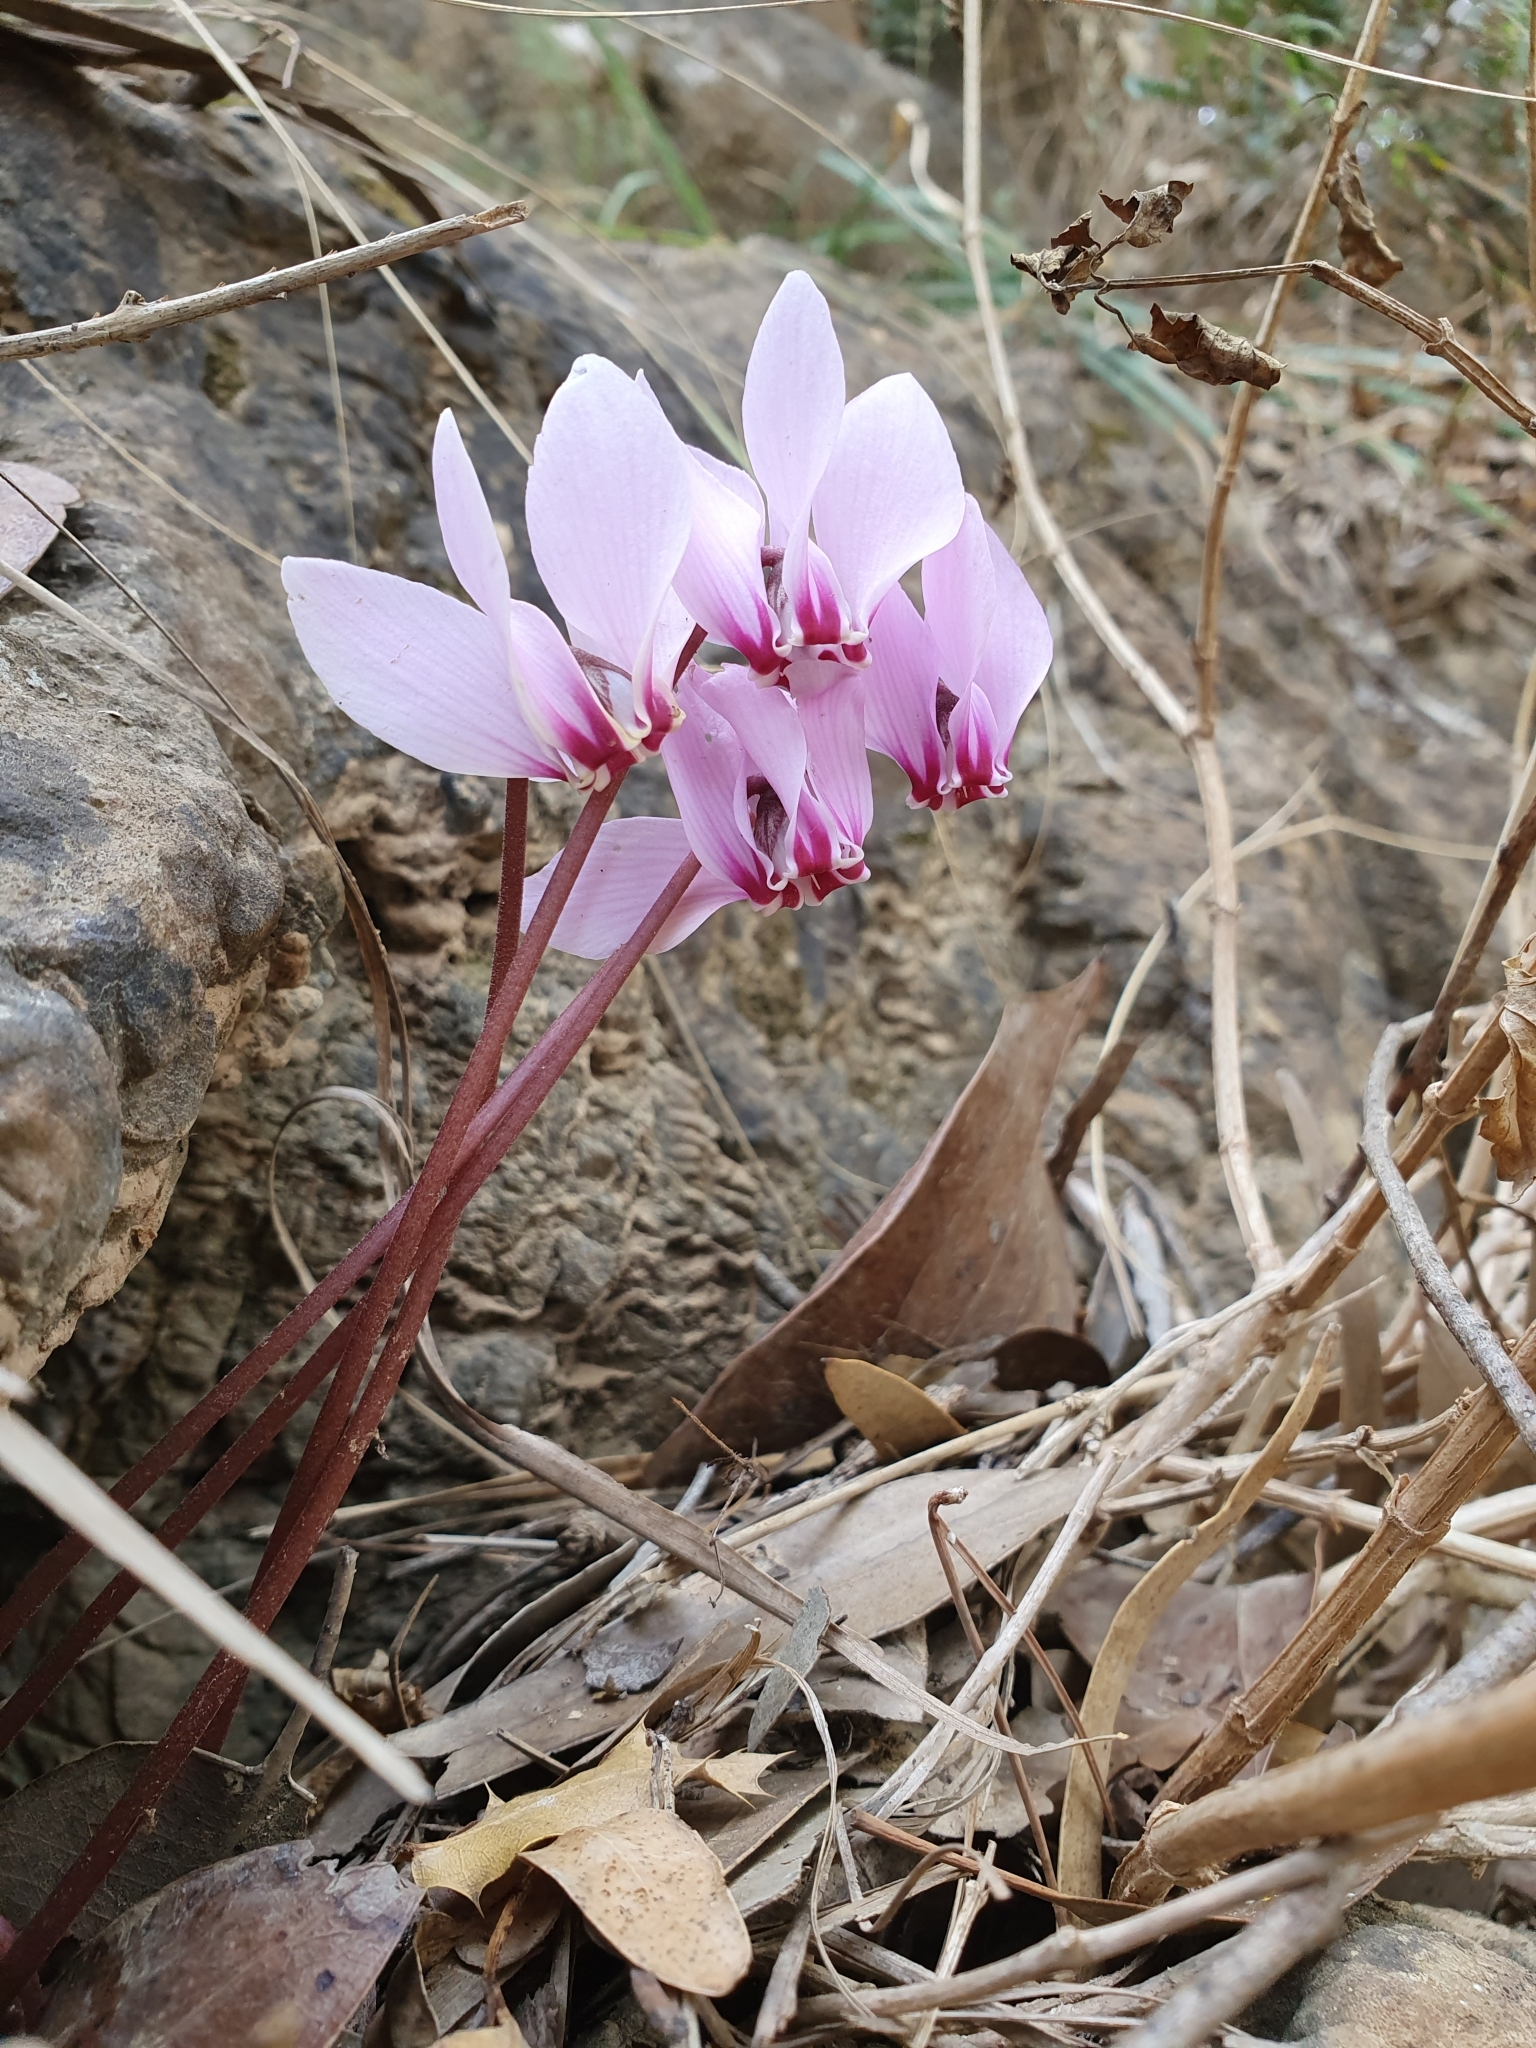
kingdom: Plantae
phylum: Tracheophyta
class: Magnoliopsida
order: Ericales
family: Primulaceae
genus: Cyclamen
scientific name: Cyclamen africanum
